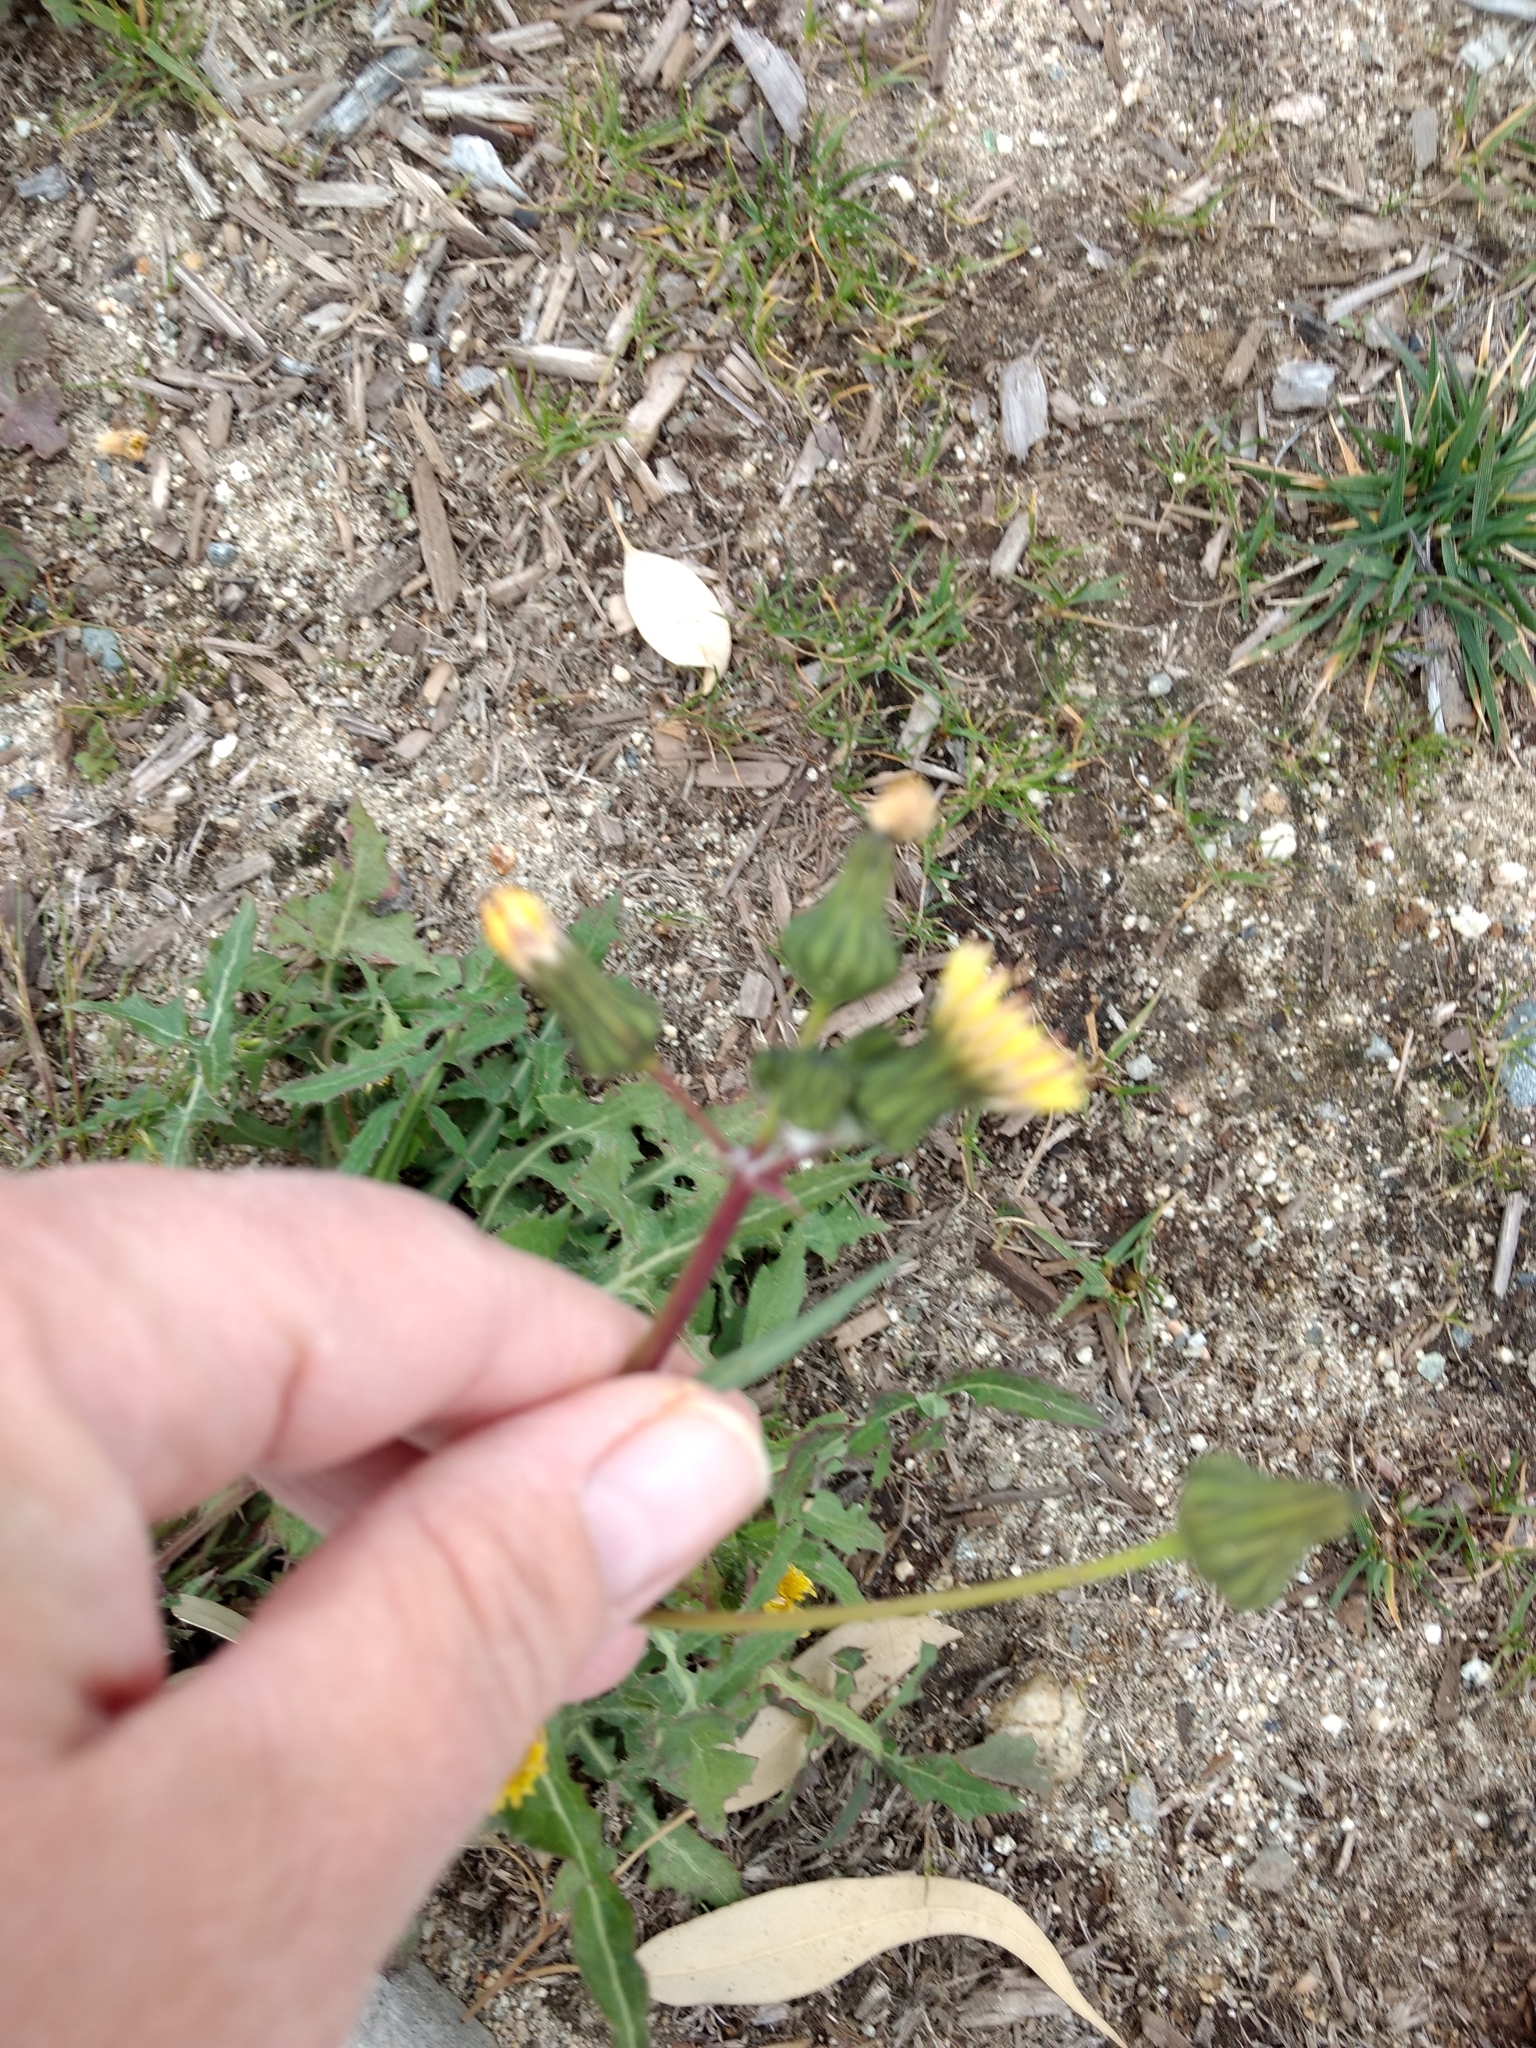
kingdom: Plantae
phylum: Tracheophyta
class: Magnoliopsida
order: Asterales
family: Asteraceae
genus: Sonchus
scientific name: Sonchus oleraceus
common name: Common sowthistle
